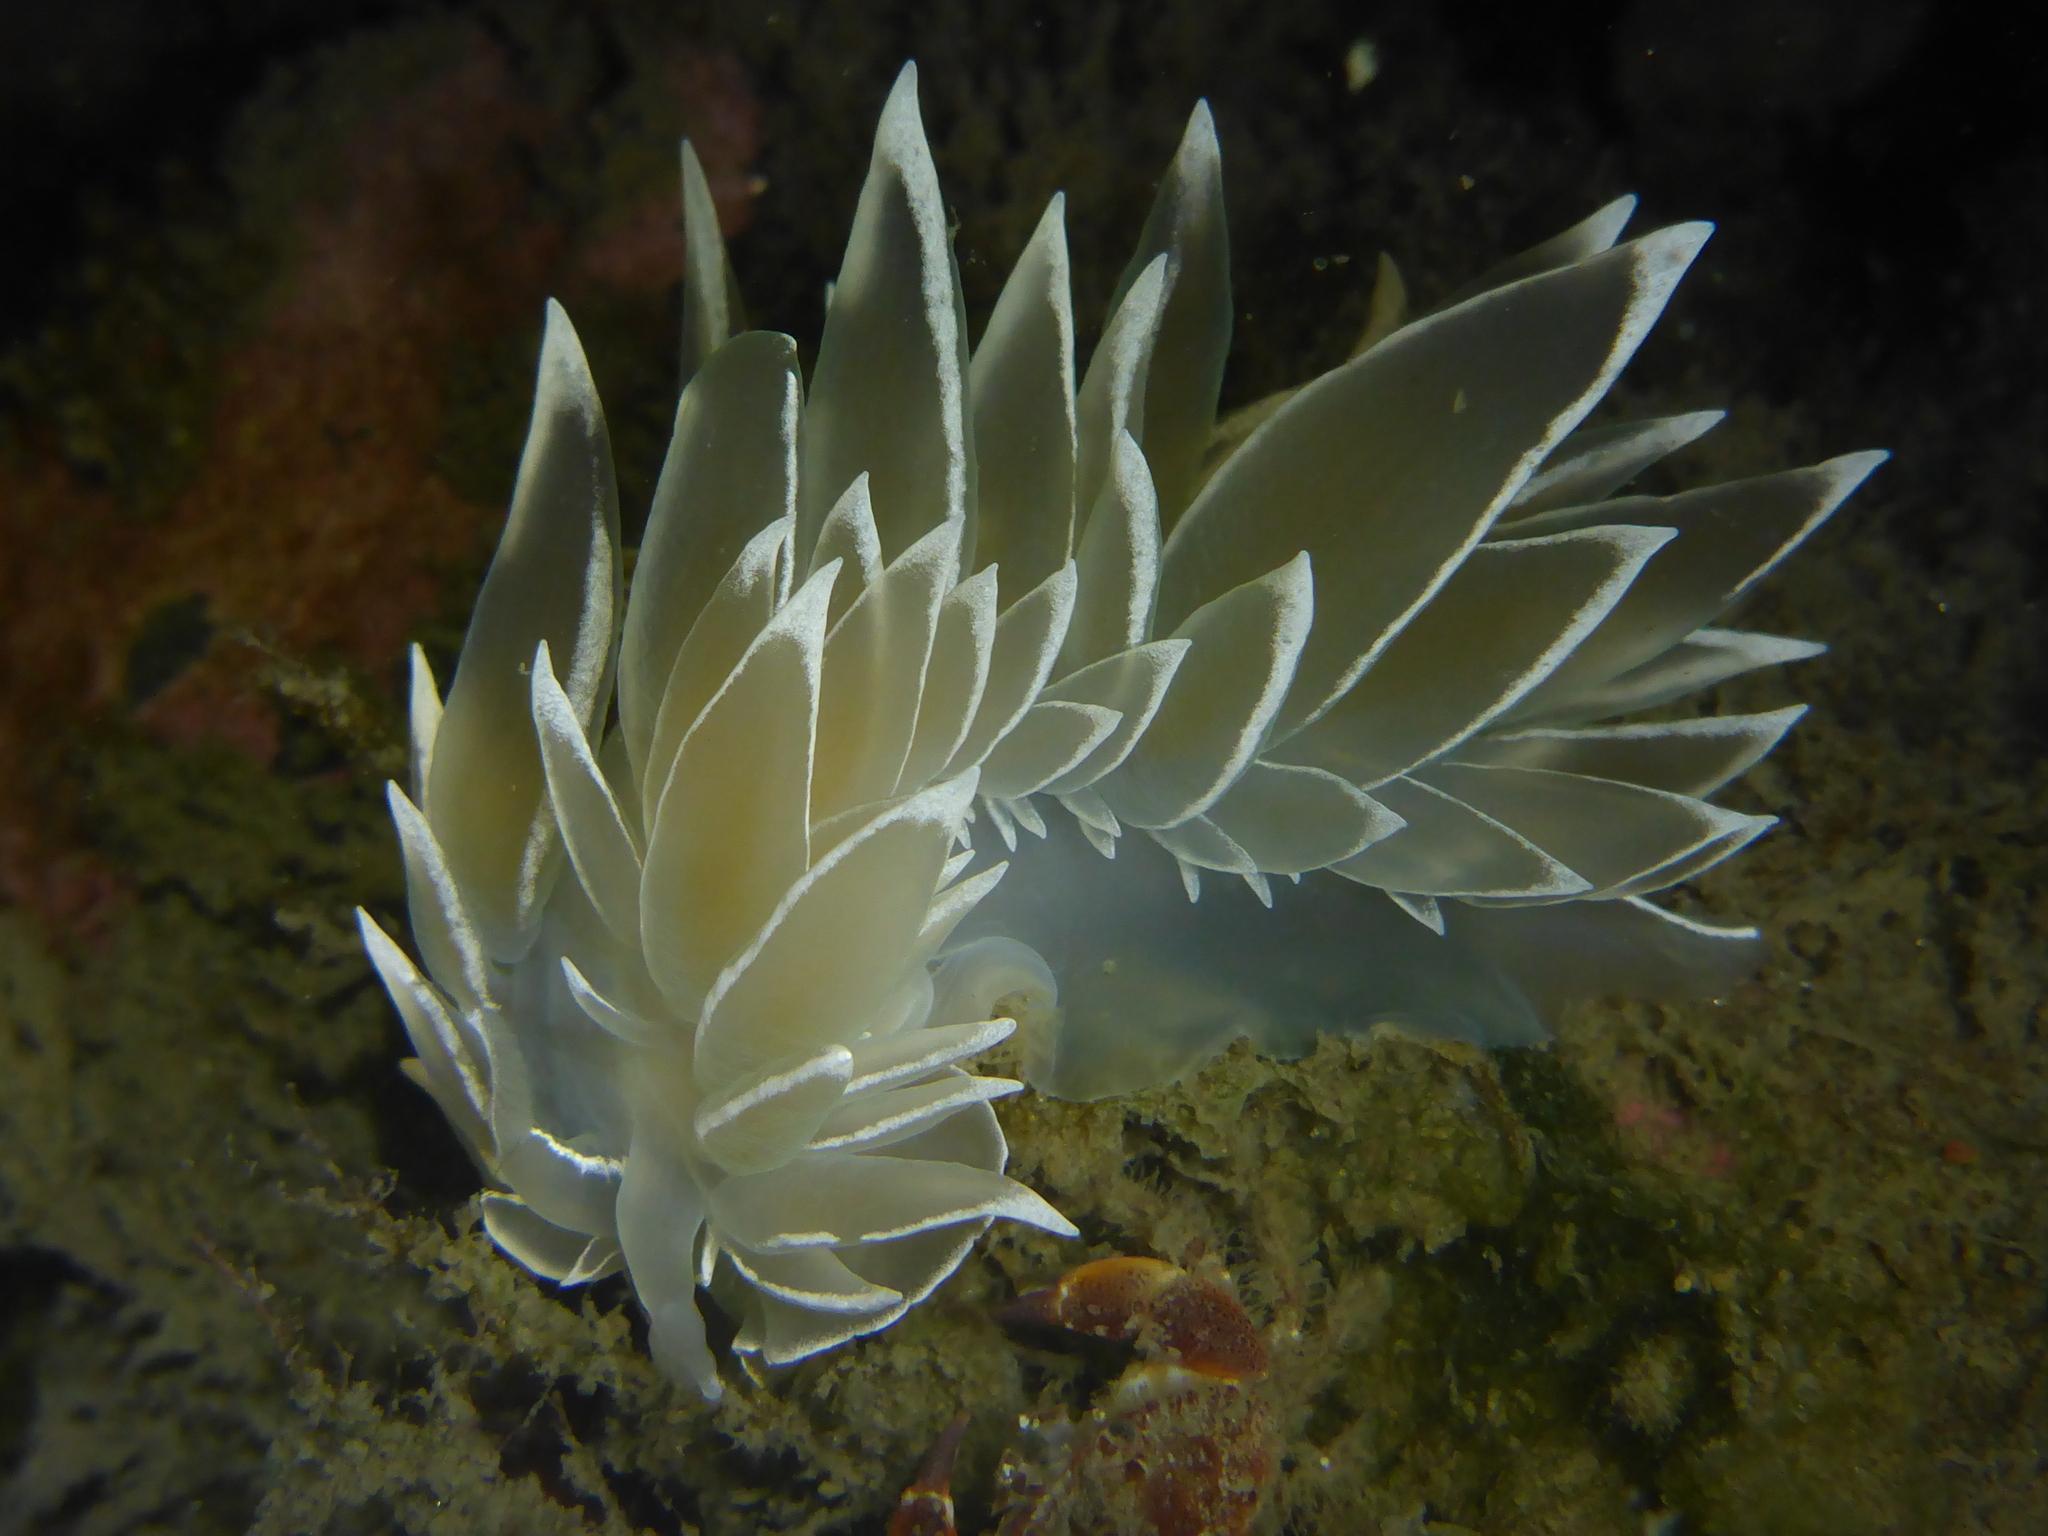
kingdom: Animalia
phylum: Mollusca
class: Gastropoda
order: Nudibranchia
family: Dironidae
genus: Dirona
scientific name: Dirona albolineata
